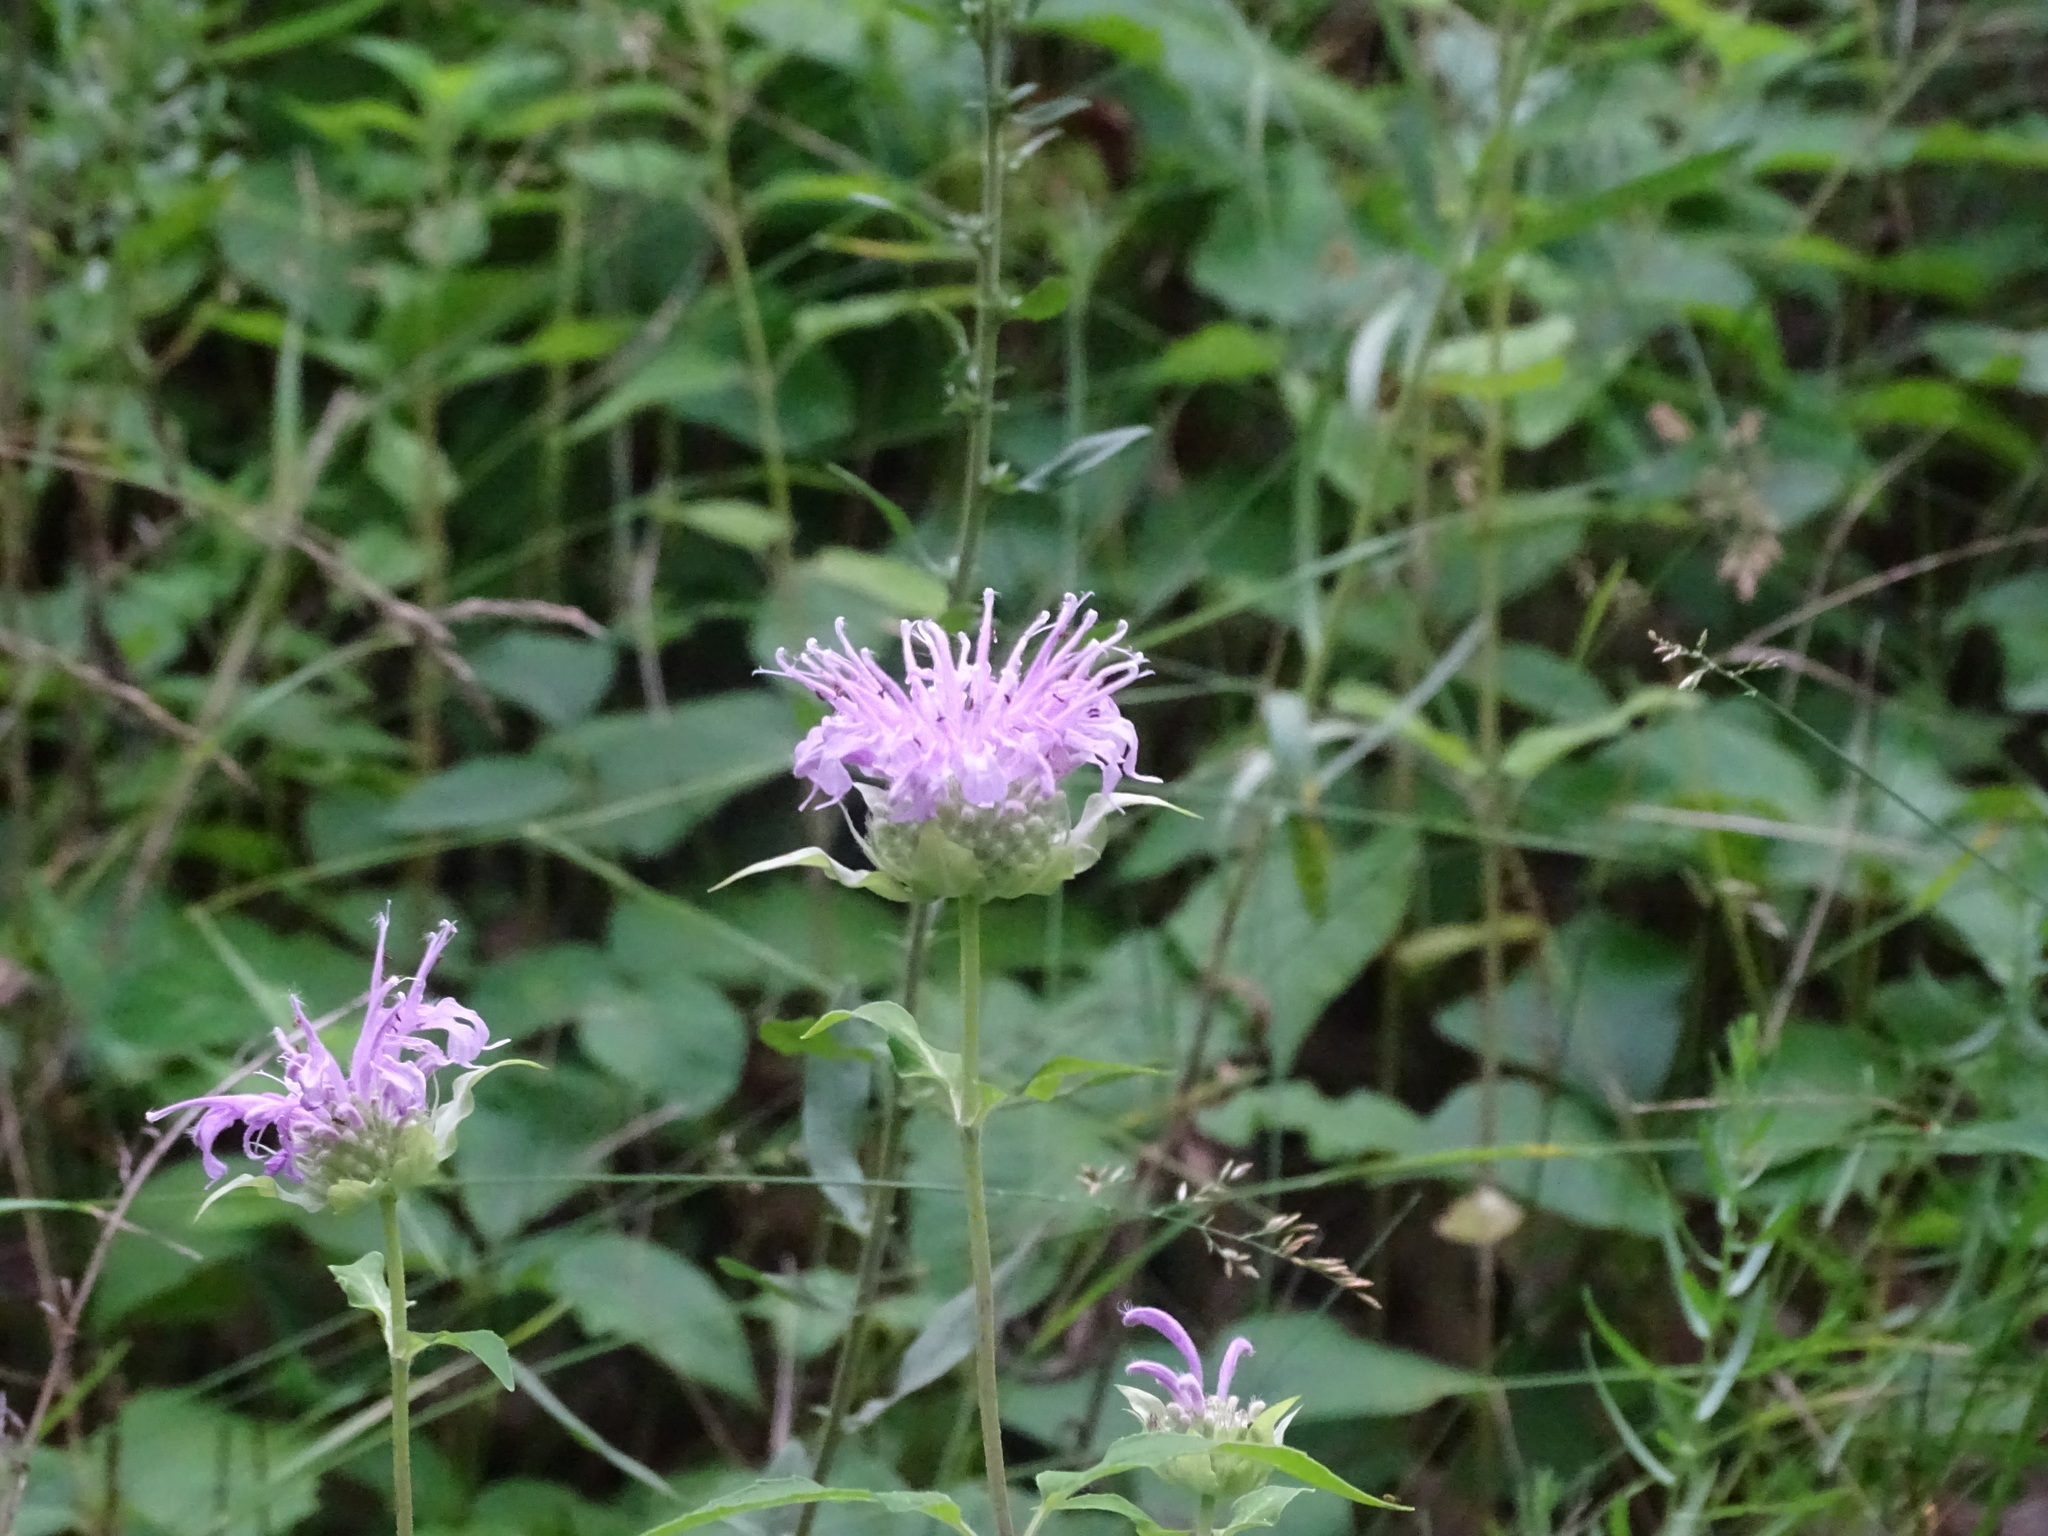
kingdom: Plantae
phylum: Tracheophyta
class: Magnoliopsida
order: Lamiales
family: Lamiaceae
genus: Monarda
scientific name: Monarda fistulosa
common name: Purple beebalm
